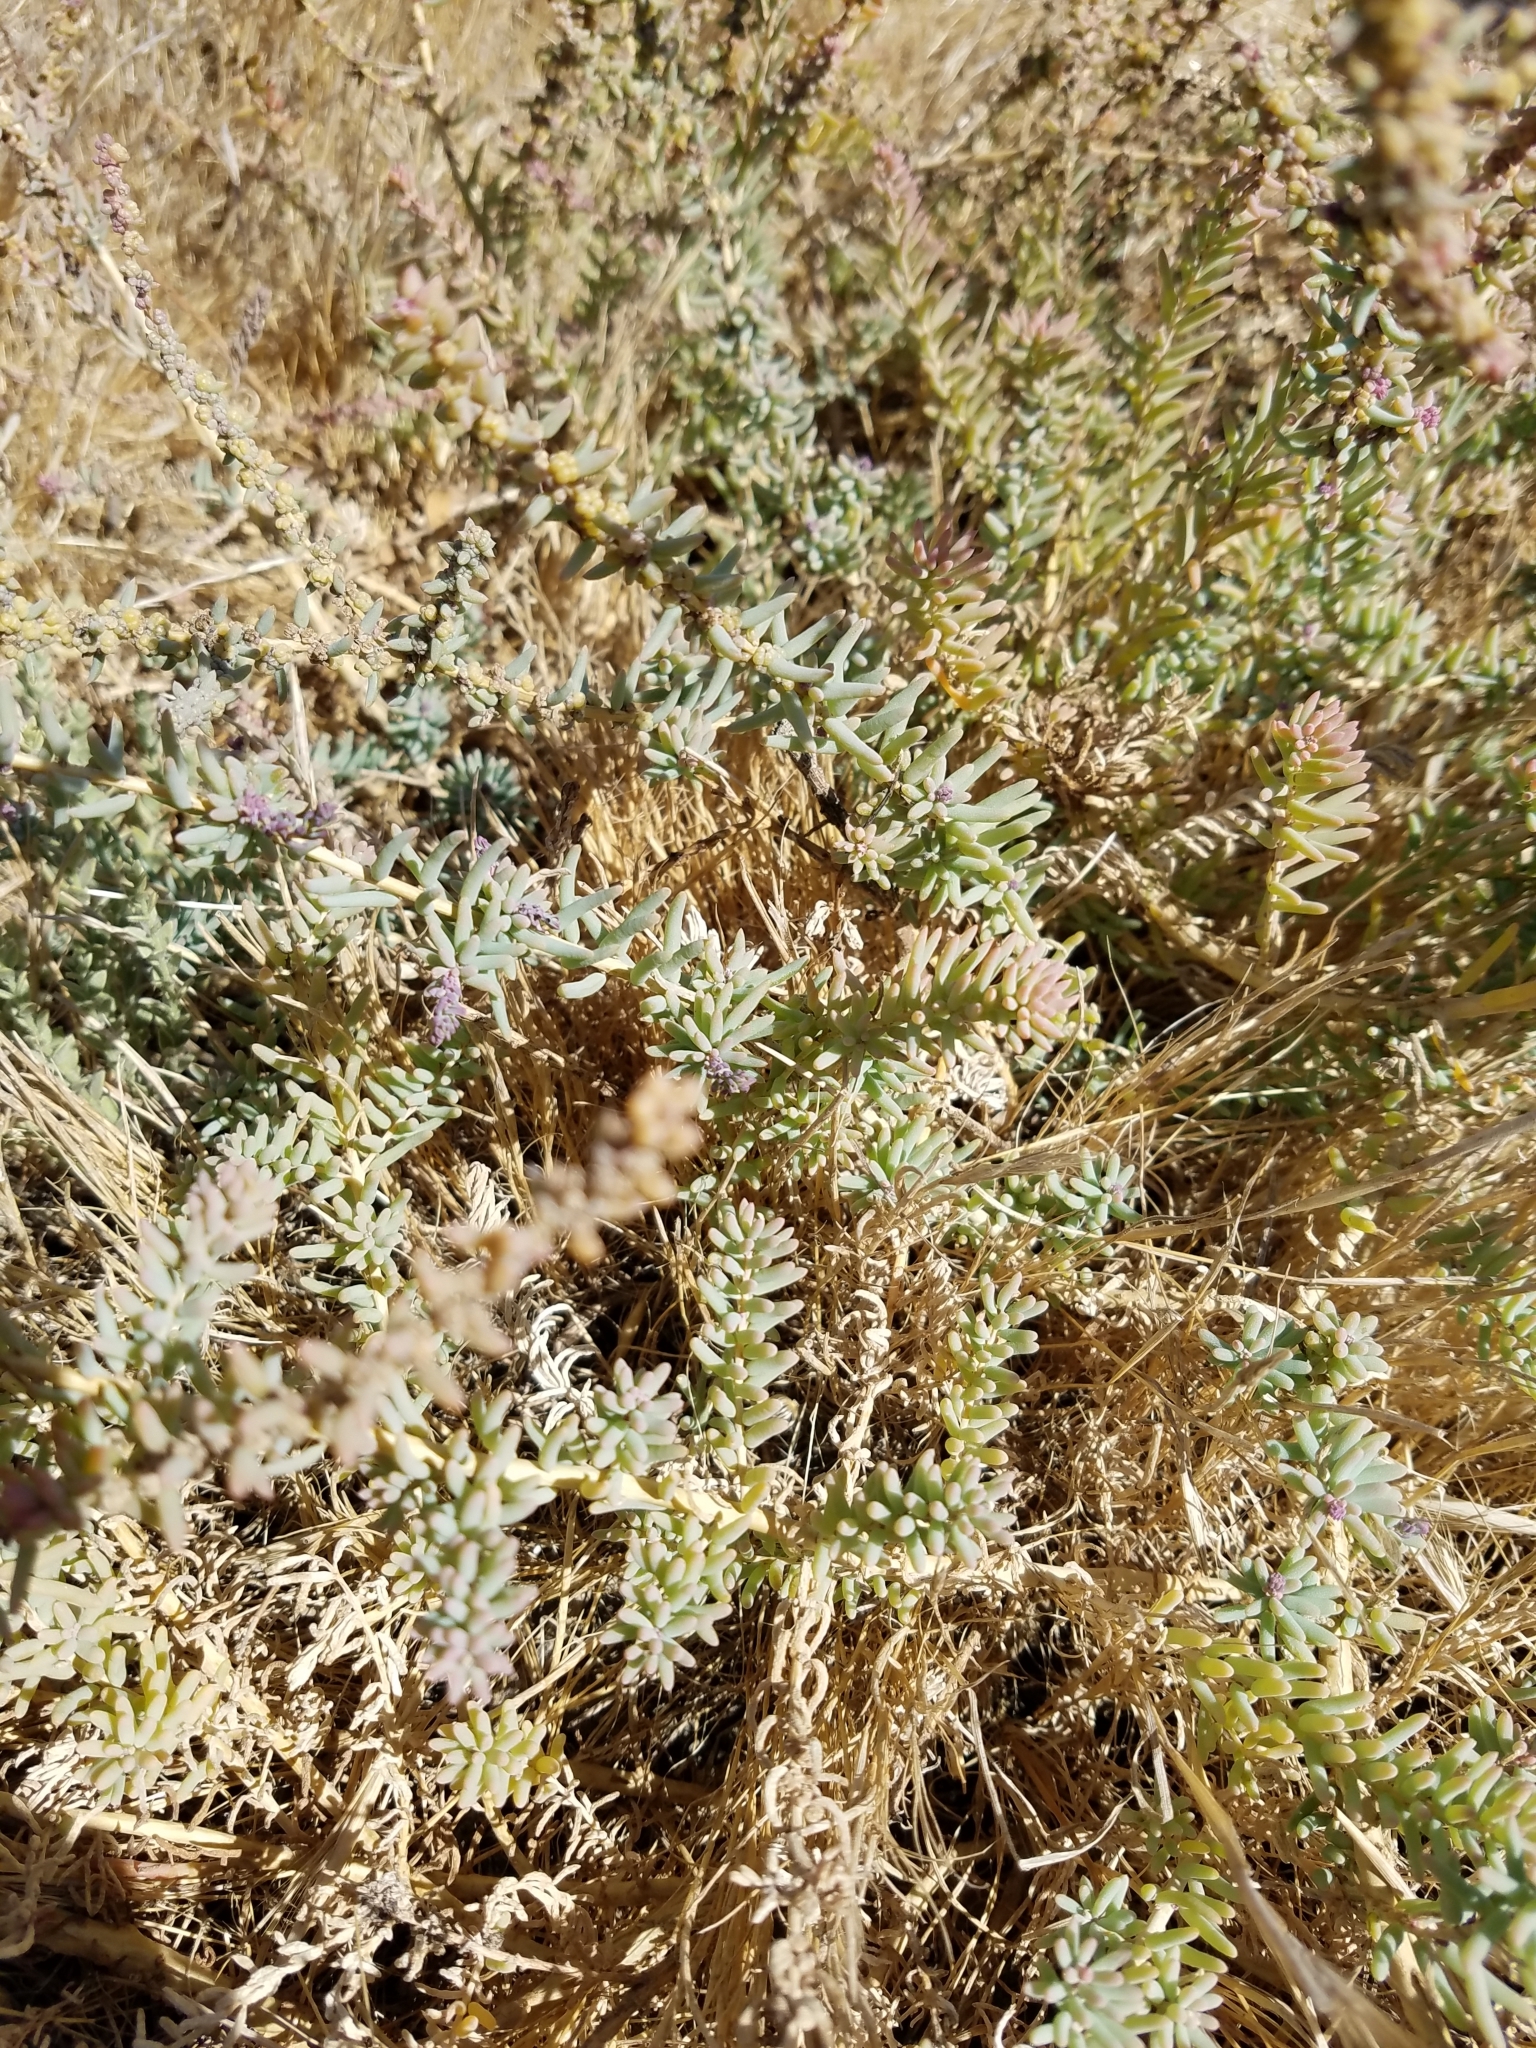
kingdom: Plantae
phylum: Tracheophyta
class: Magnoliopsida
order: Caryophyllales
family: Amaranthaceae
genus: Suaeda
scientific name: Suaeda nigra
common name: Bush seepweed
